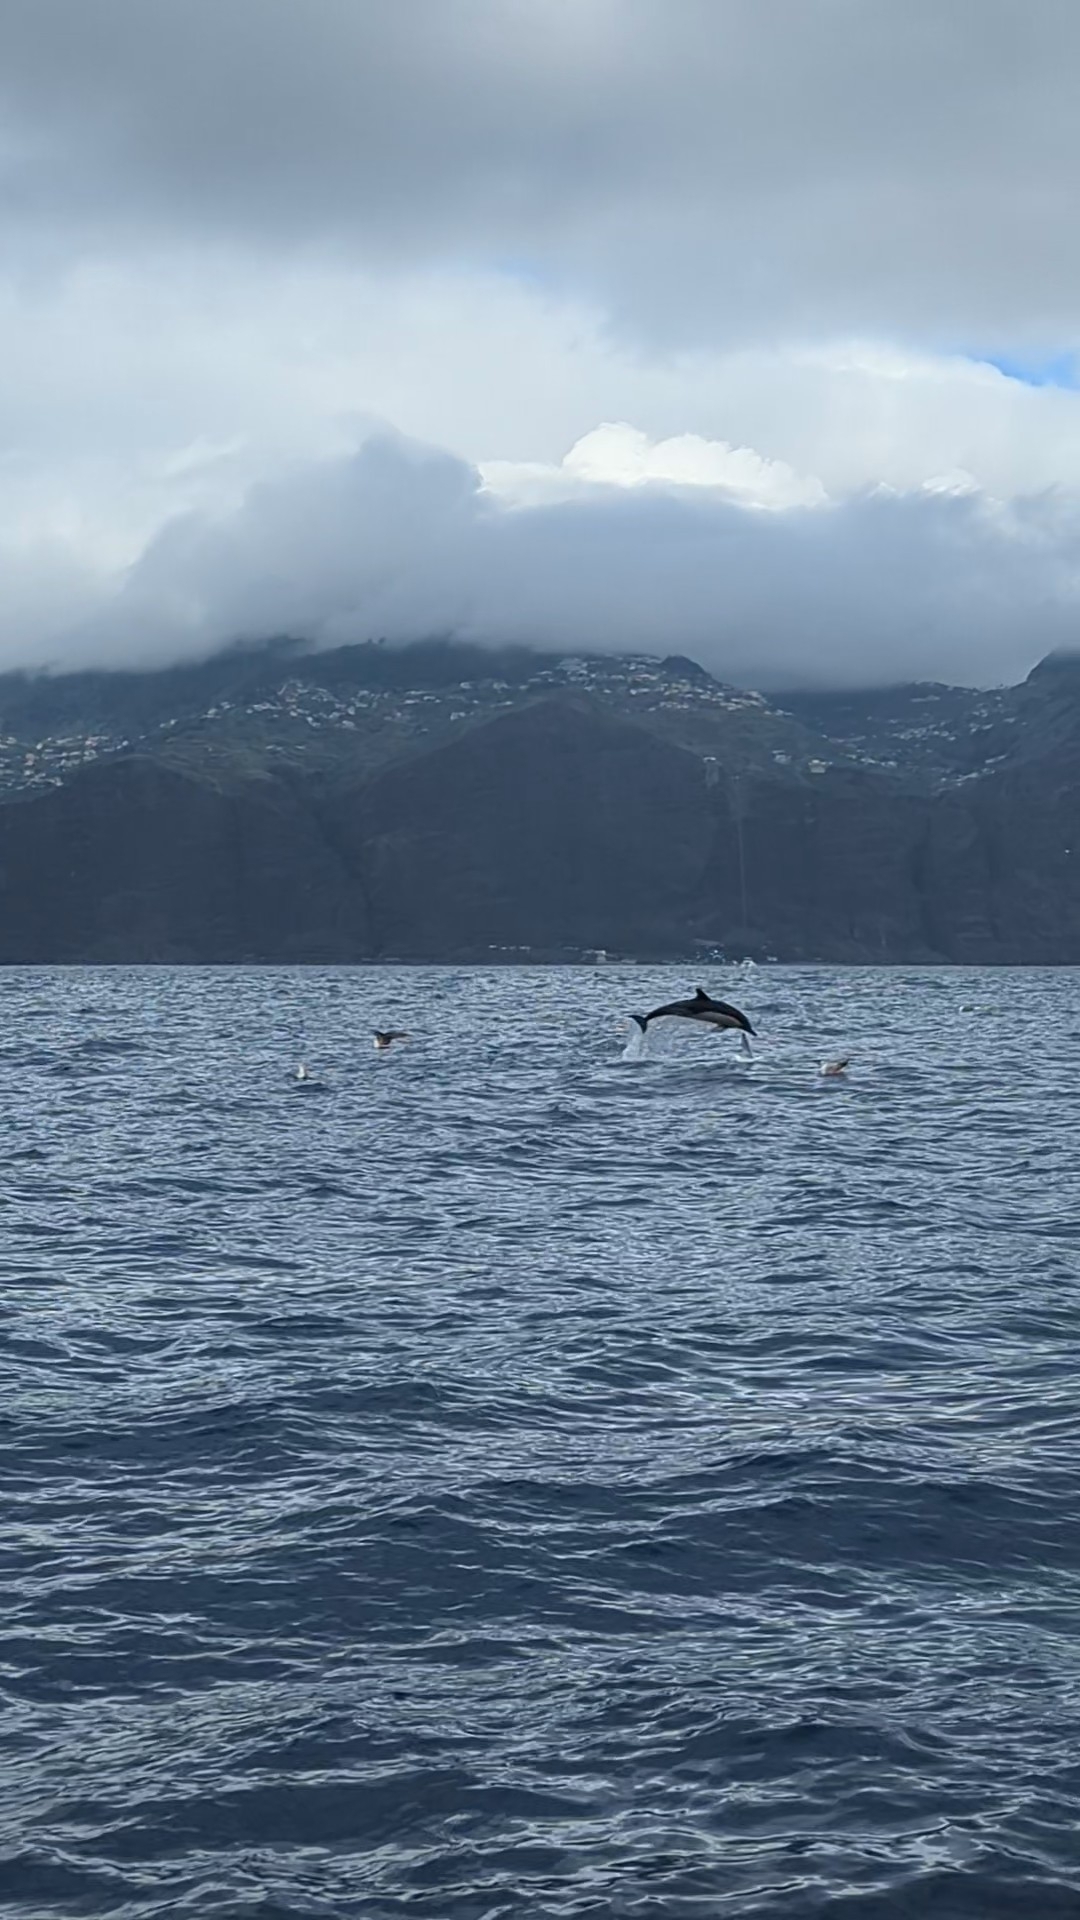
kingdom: Animalia
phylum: Chordata
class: Mammalia
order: Cetacea
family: Delphinidae
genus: Delphinus
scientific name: Delphinus delphis
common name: Common dolphin
